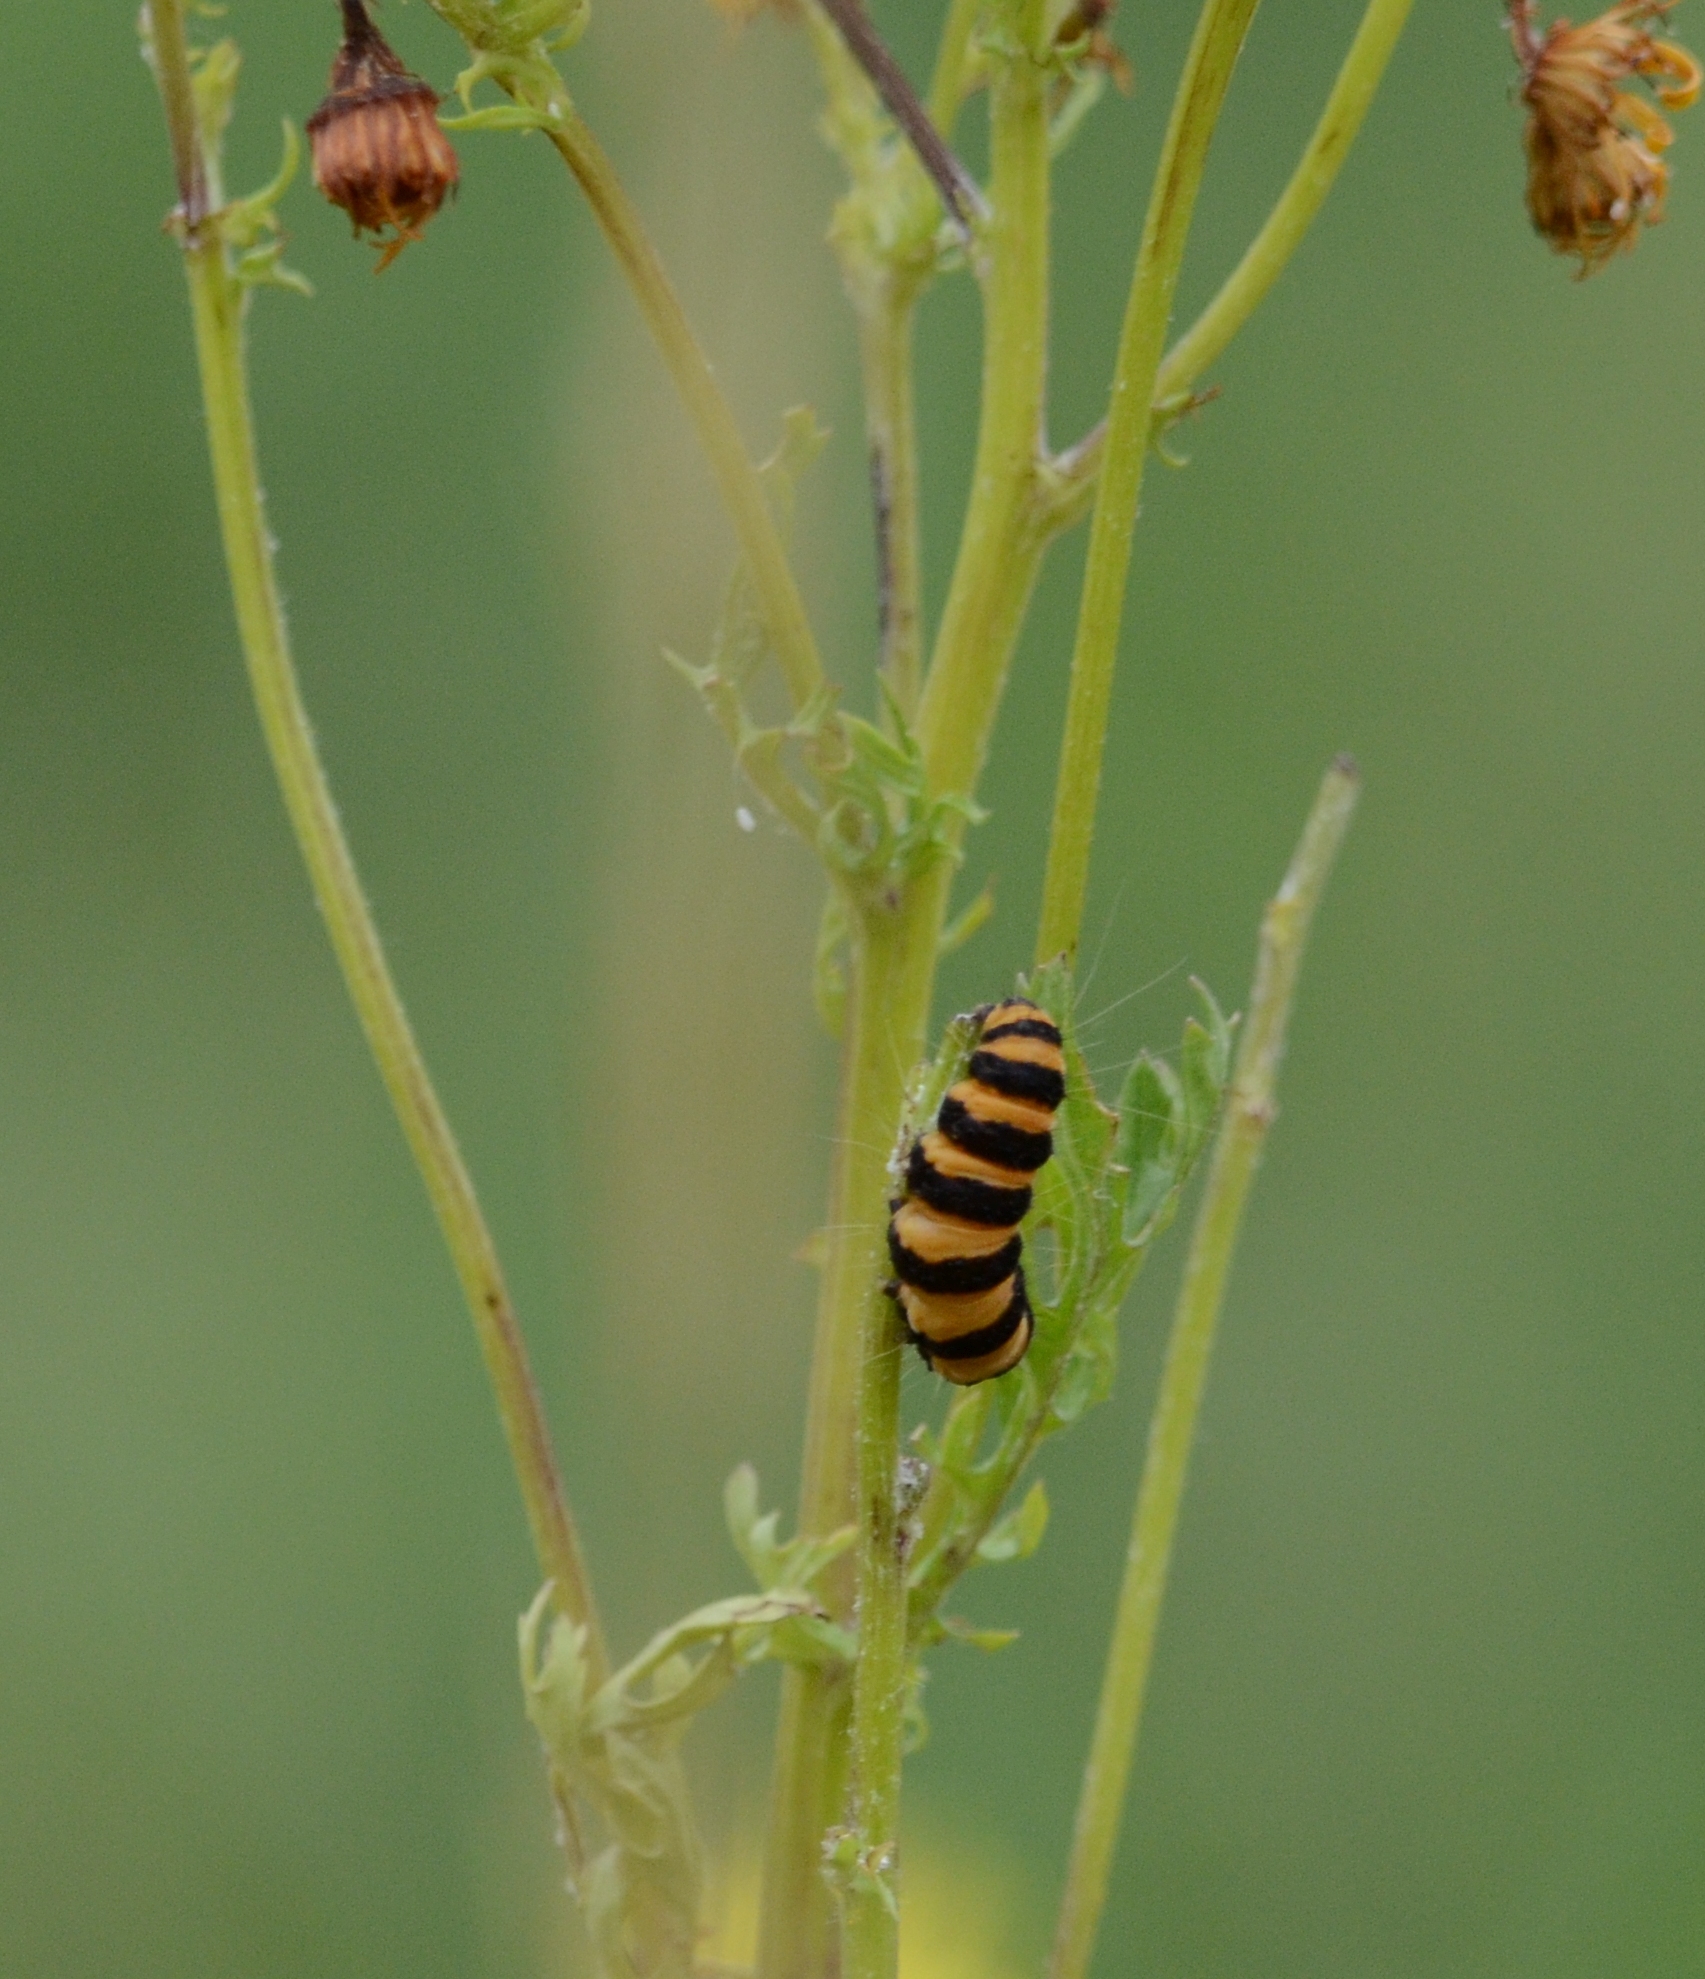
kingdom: Animalia
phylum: Arthropoda
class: Insecta
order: Lepidoptera
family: Erebidae
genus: Tyria
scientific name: Tyria jacobaeae
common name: Cinnabar
